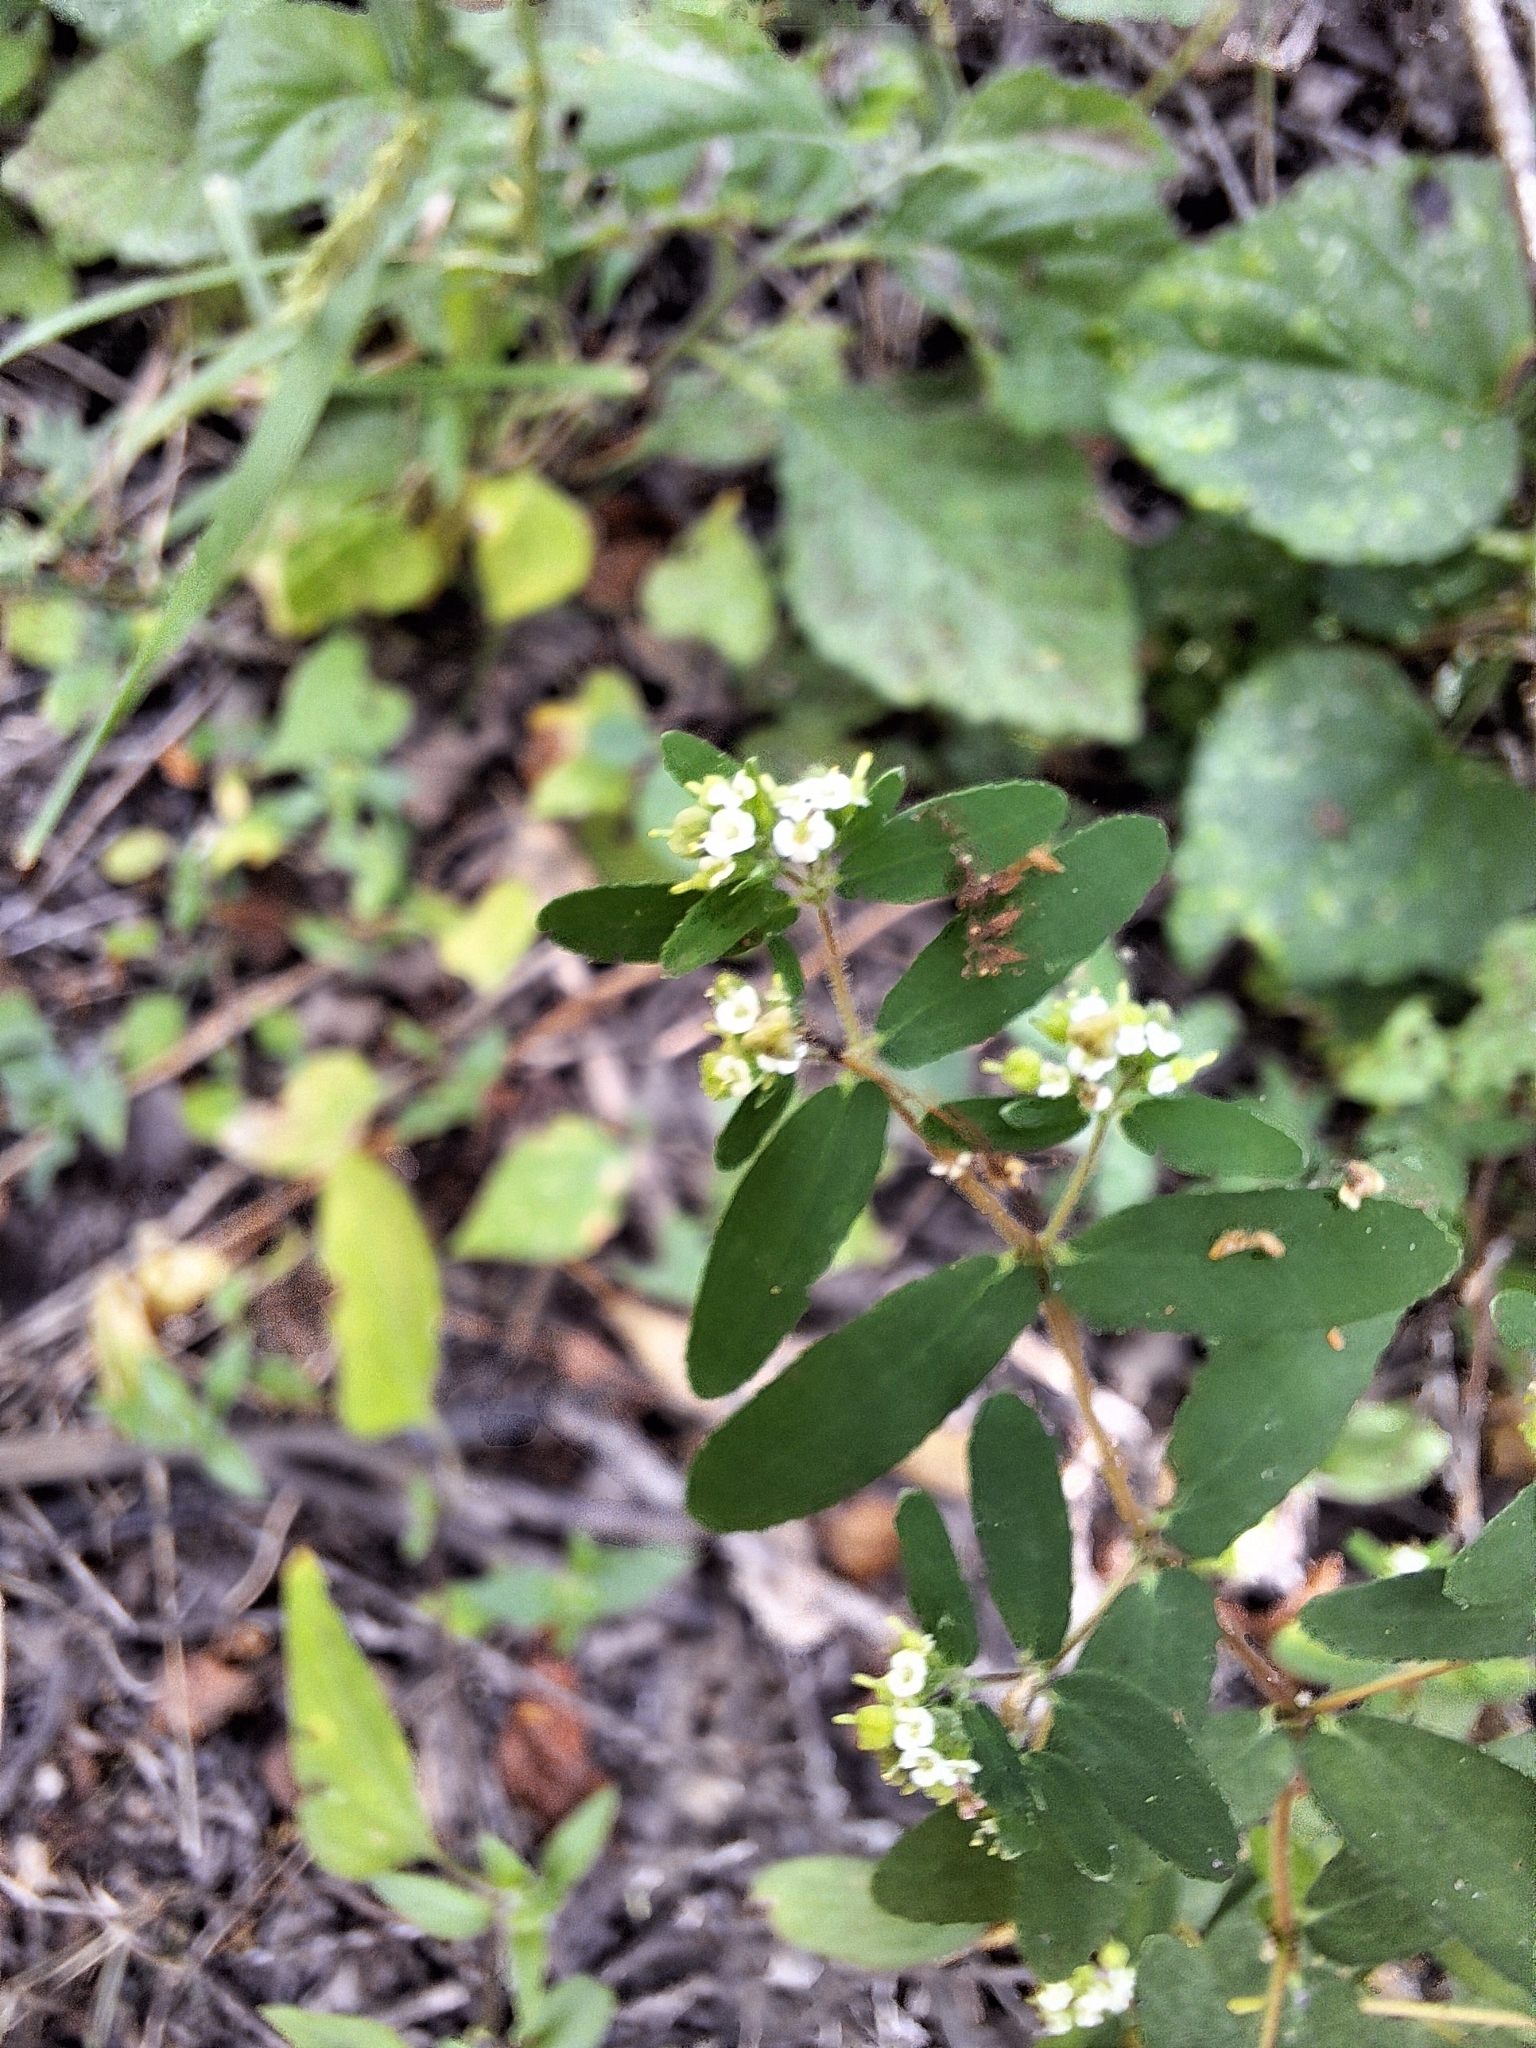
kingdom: Plantae
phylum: Tracheophyta
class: Magnoliopsida
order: Malpighiales
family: Euphorbiaceae
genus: Euphorbia
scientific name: Euphorbia lasiocarpa
